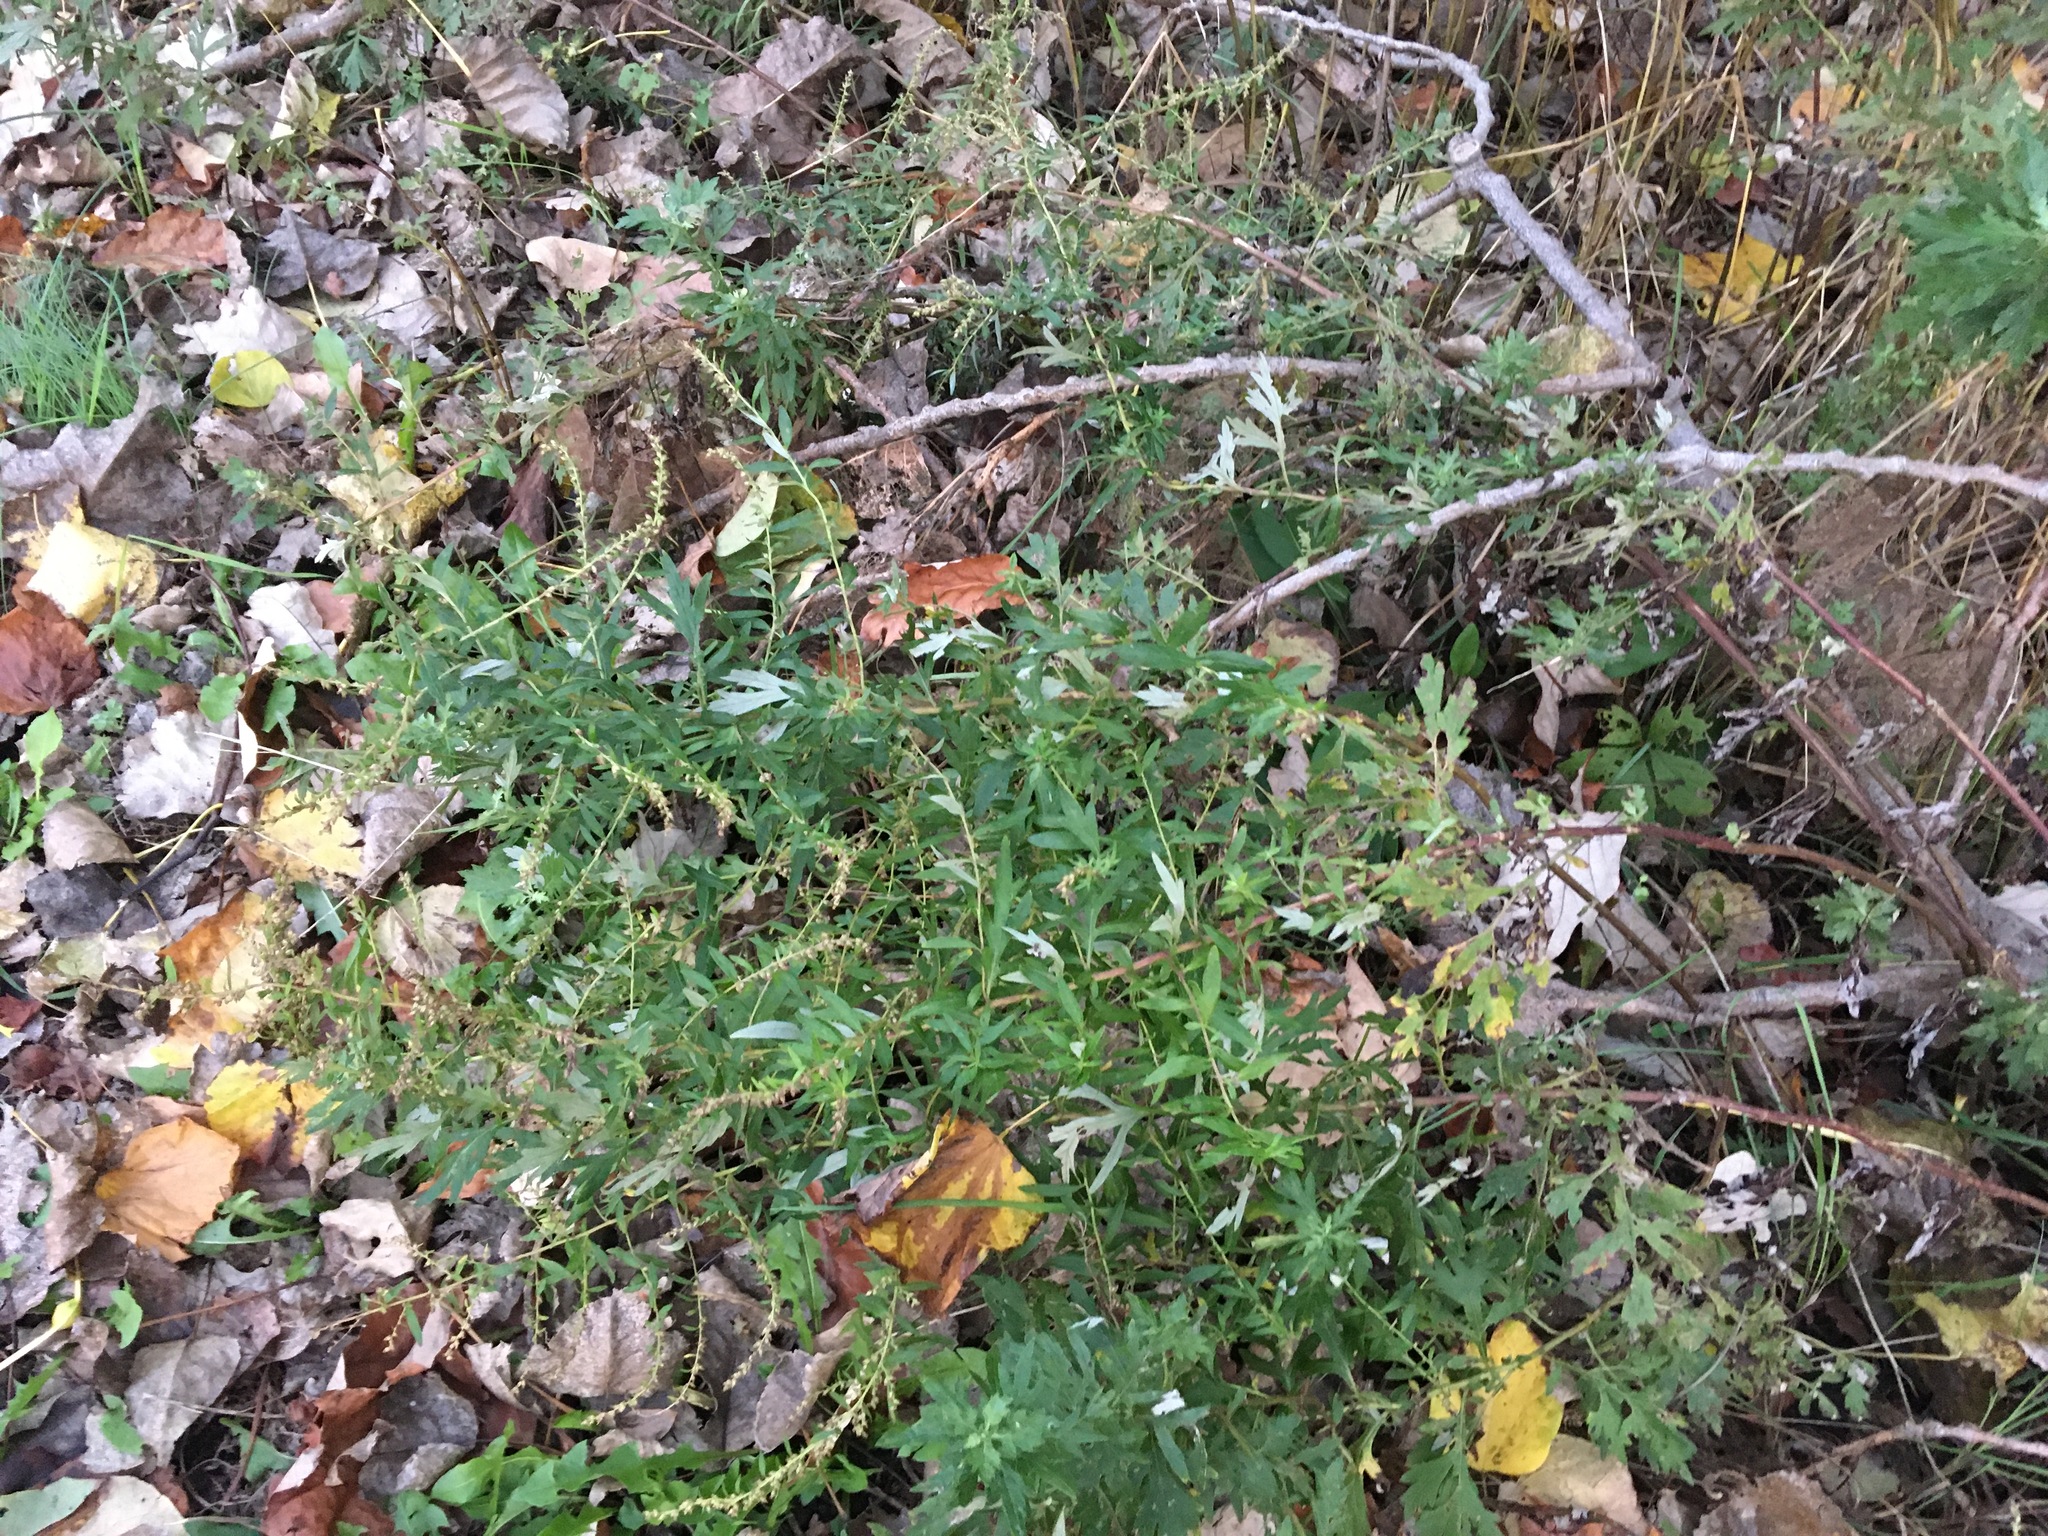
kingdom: Plantae
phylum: Tracheophyta
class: Magnoliopsida
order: Asterales
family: Asteraceae
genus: Artemisia
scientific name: Artemisia vulgaris
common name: Mugwort
